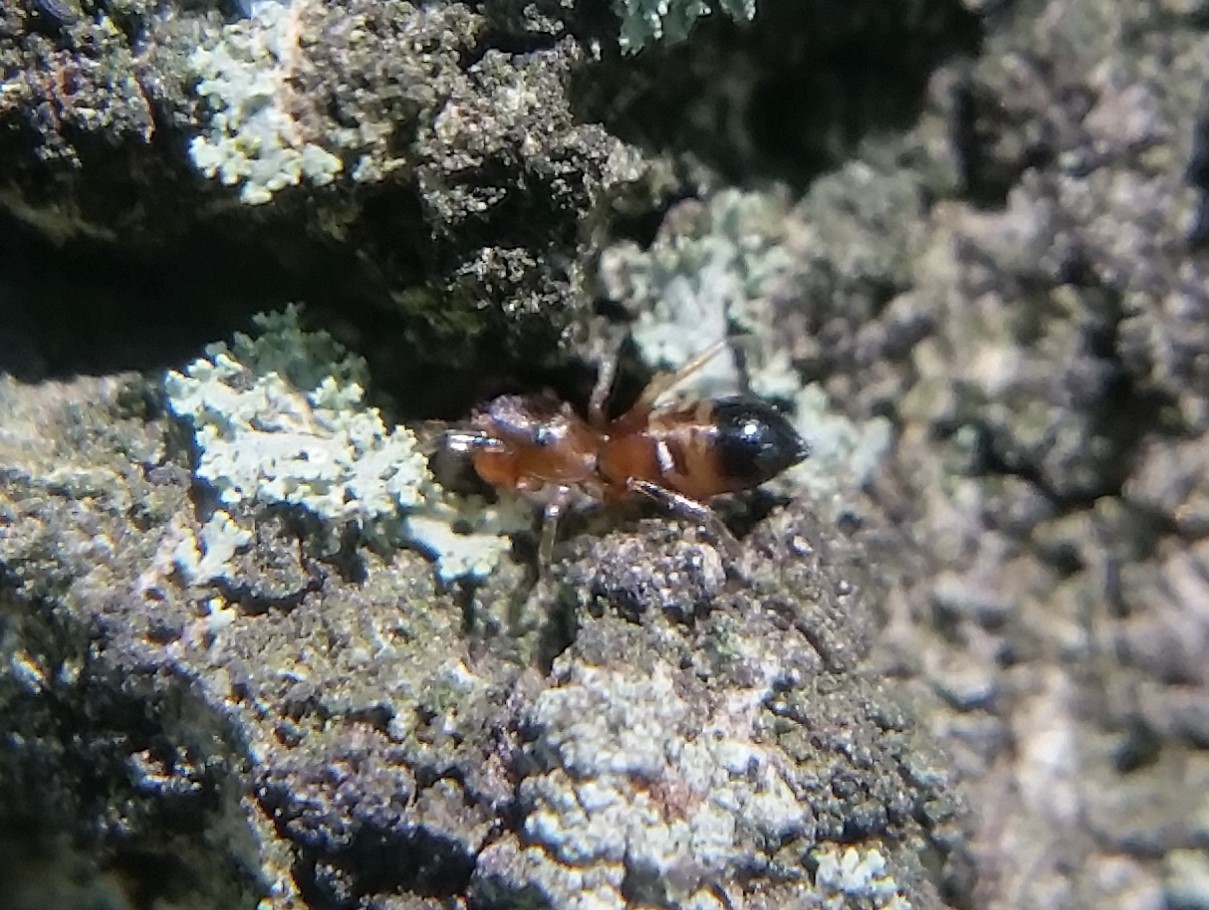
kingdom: Animalia
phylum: Arthropoda
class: Arachnida
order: Araneae
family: Salticidae
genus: Synageles
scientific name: Synageles
